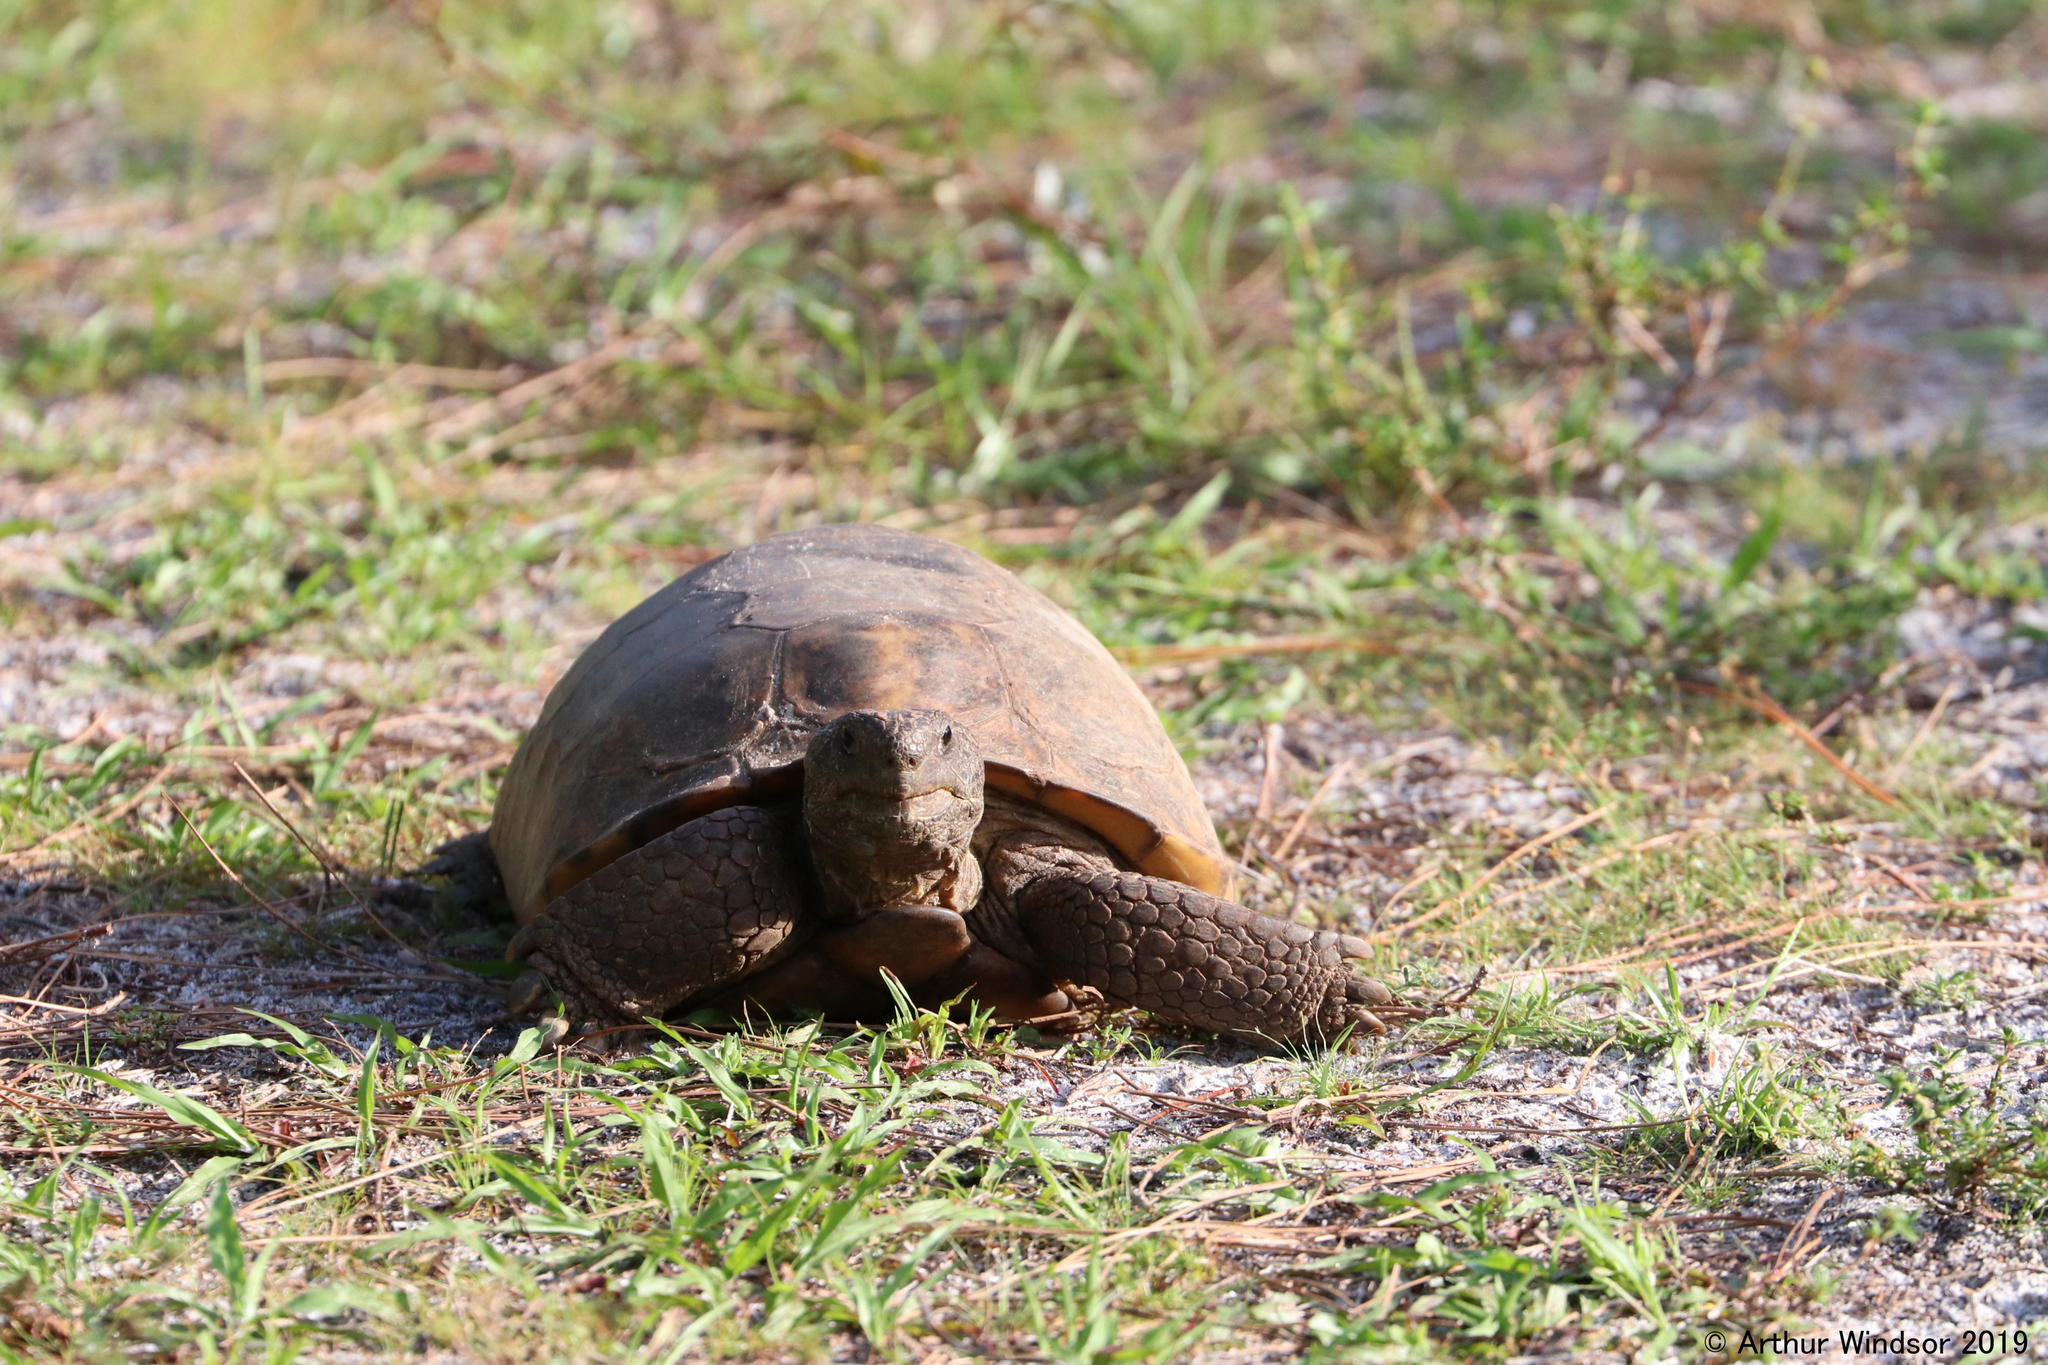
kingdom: Animalia
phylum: Chordata
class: Testudines
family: Testudinidae
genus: Gopherus
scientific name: Gopherus polyphemus
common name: Florida gopher tortoise
